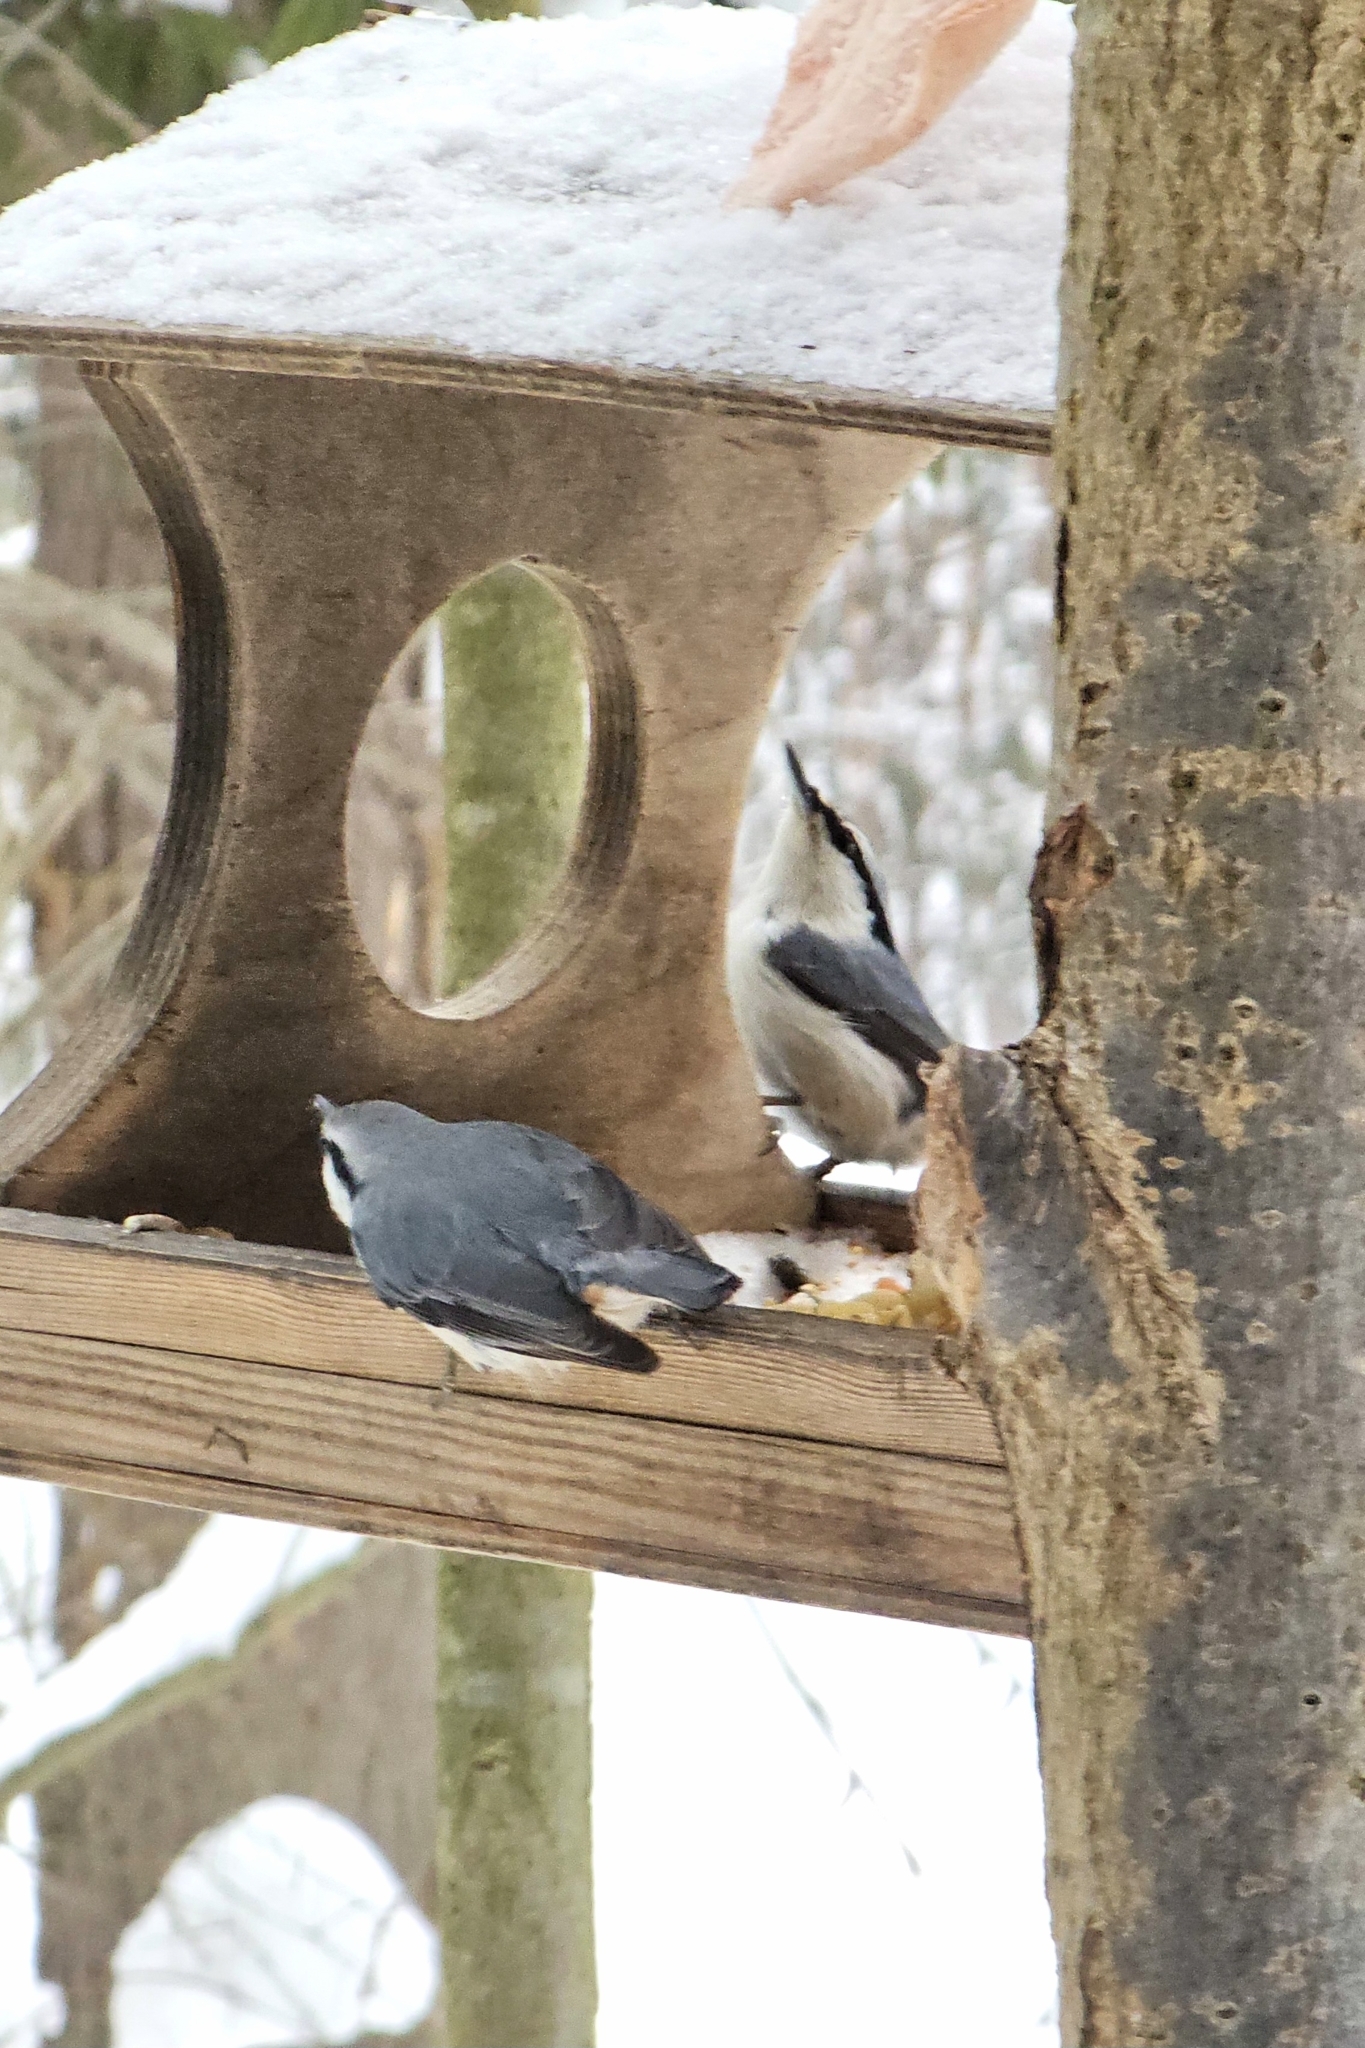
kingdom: Animalia
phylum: Chordata
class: Aves
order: Passeriformes
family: Sittidae
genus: Sitta
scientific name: Sitta europaea
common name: Eurasian nuthatch
